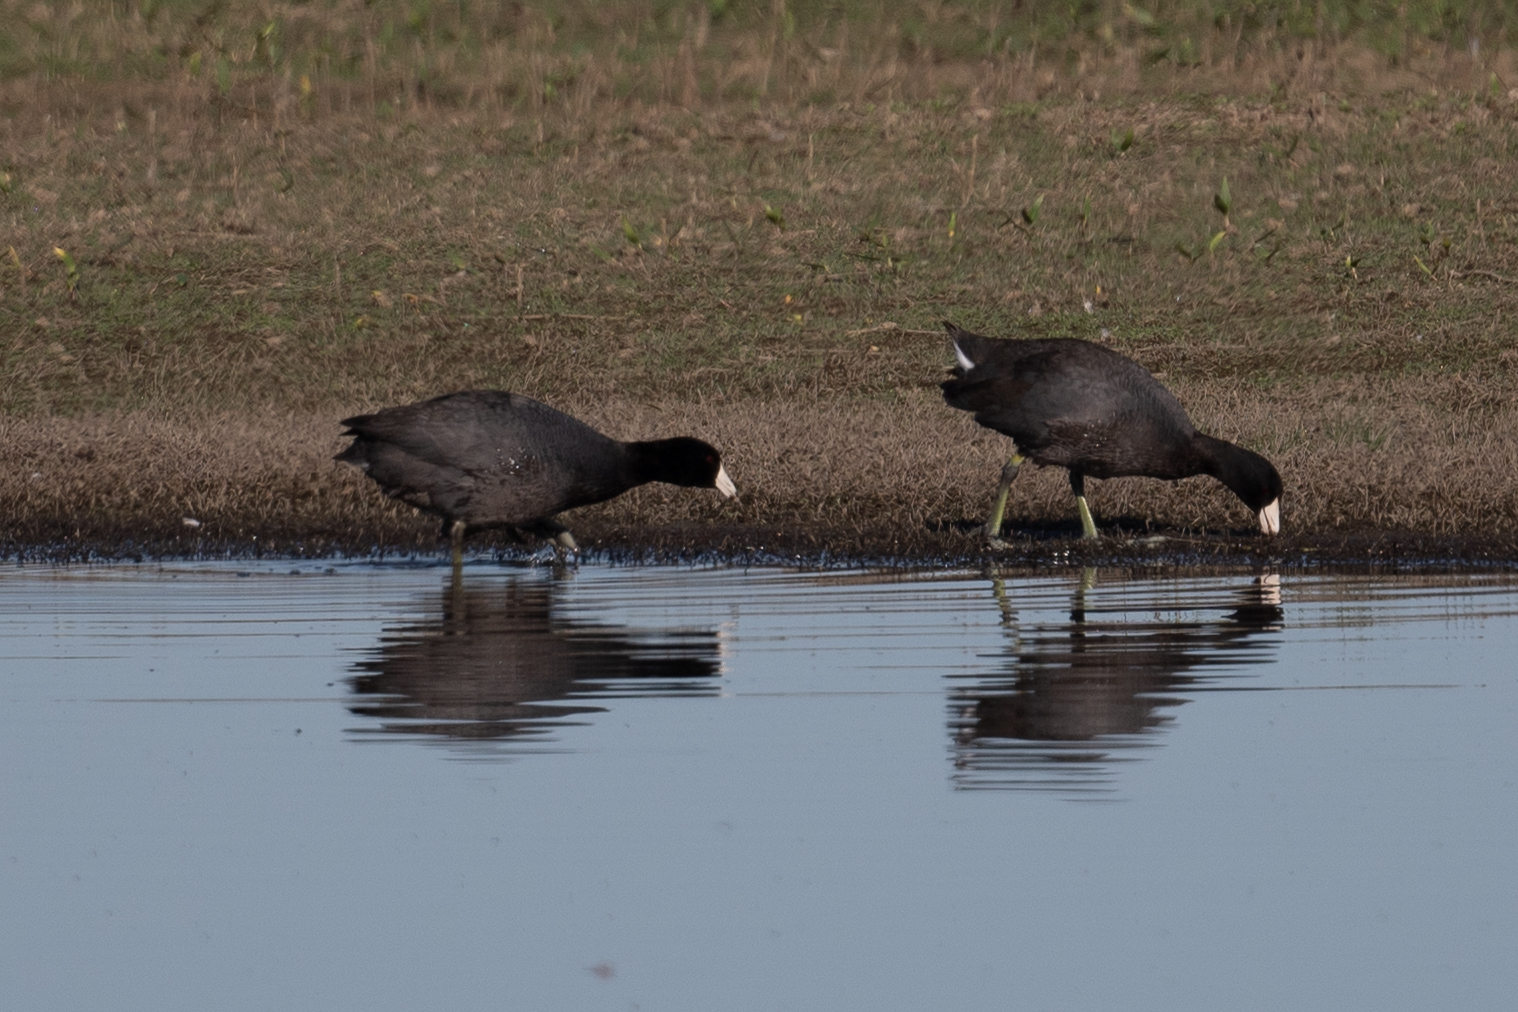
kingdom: Animalia
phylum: Chordata
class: Aves
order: Gruiformes
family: Rallidae
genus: Fulica
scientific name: Fulica americana
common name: American coot
